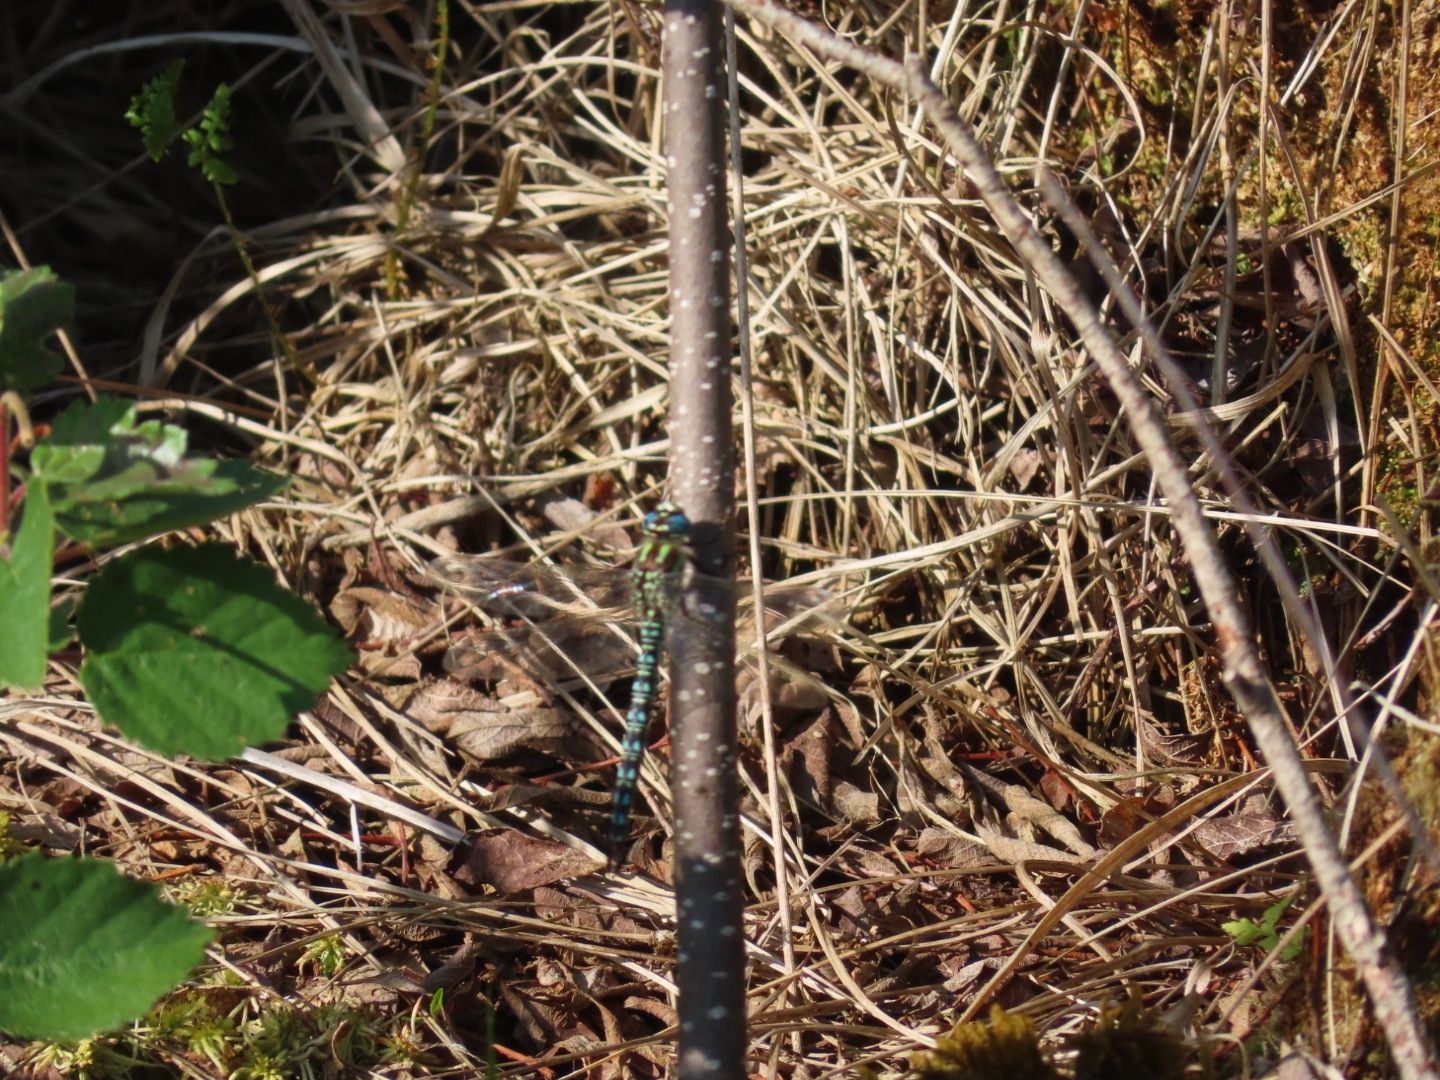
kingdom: Animalia
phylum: Arthropoda
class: Insecta
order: Odonata
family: Aeshnidae
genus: Brachytron
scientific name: Brachytron pratense
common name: Hairy hawker
